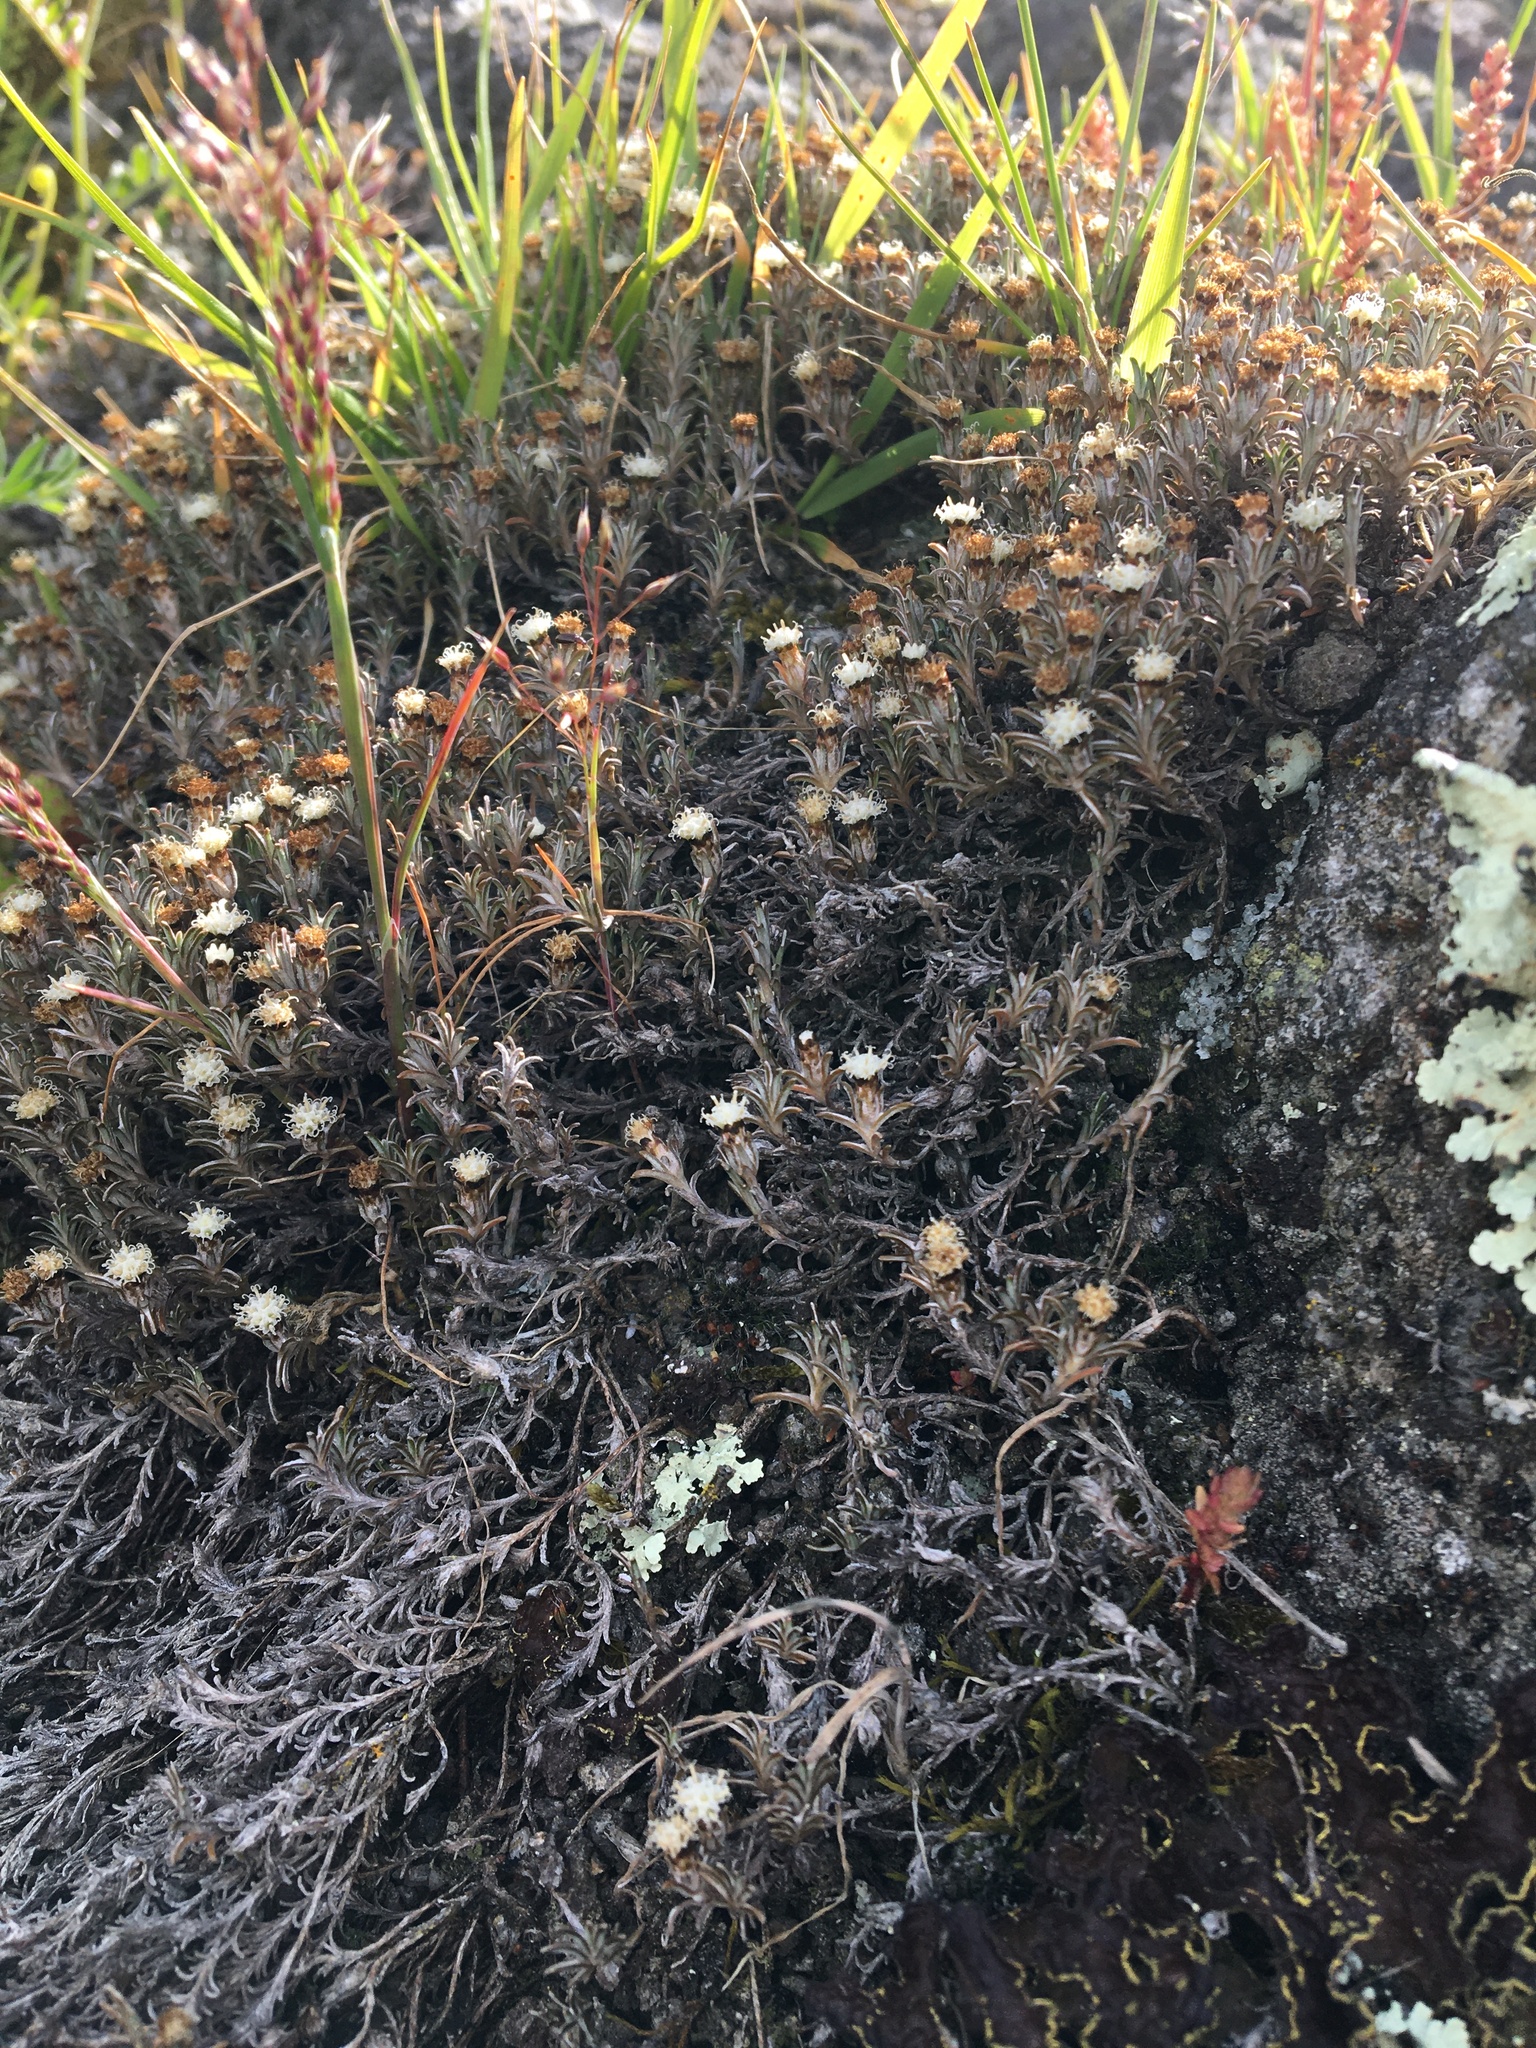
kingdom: Plantae
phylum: Tracheophyta
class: Magnoliopsida
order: Asterales
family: Asteraceae
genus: Raoulia
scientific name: Raoulia monroi
